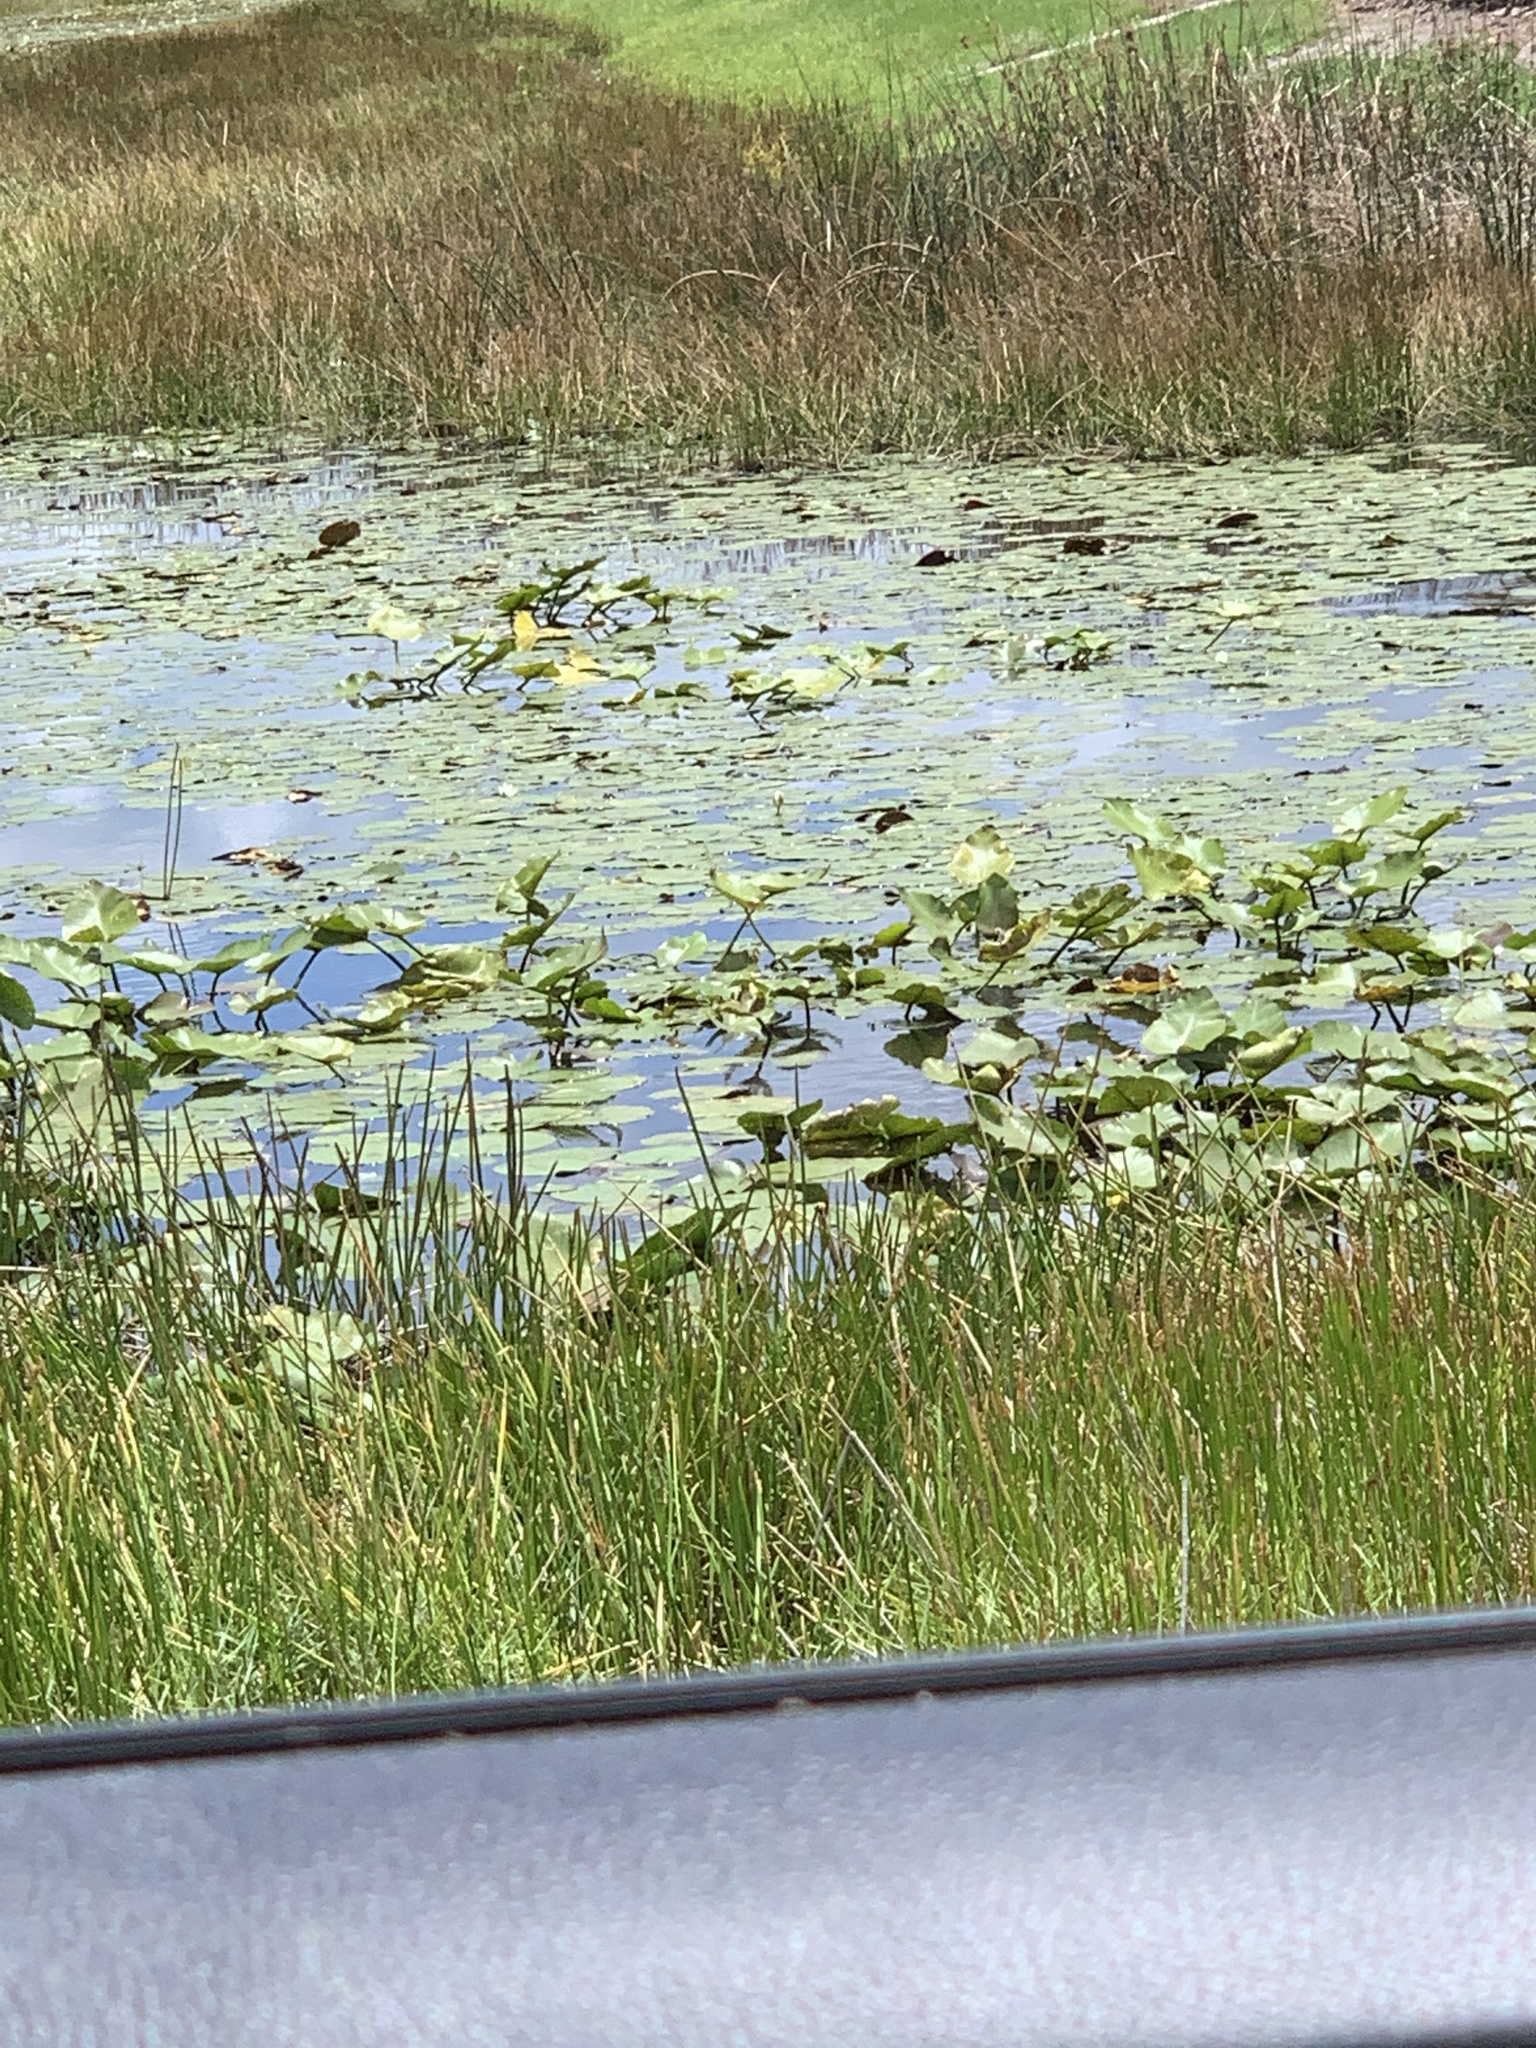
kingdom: Plantae
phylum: Tracheophyta
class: Magnoliopsida
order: Nymphaeales
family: Nymphaeaceae
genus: Nuphar
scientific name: Nuphar advena
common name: Spatter-dock
